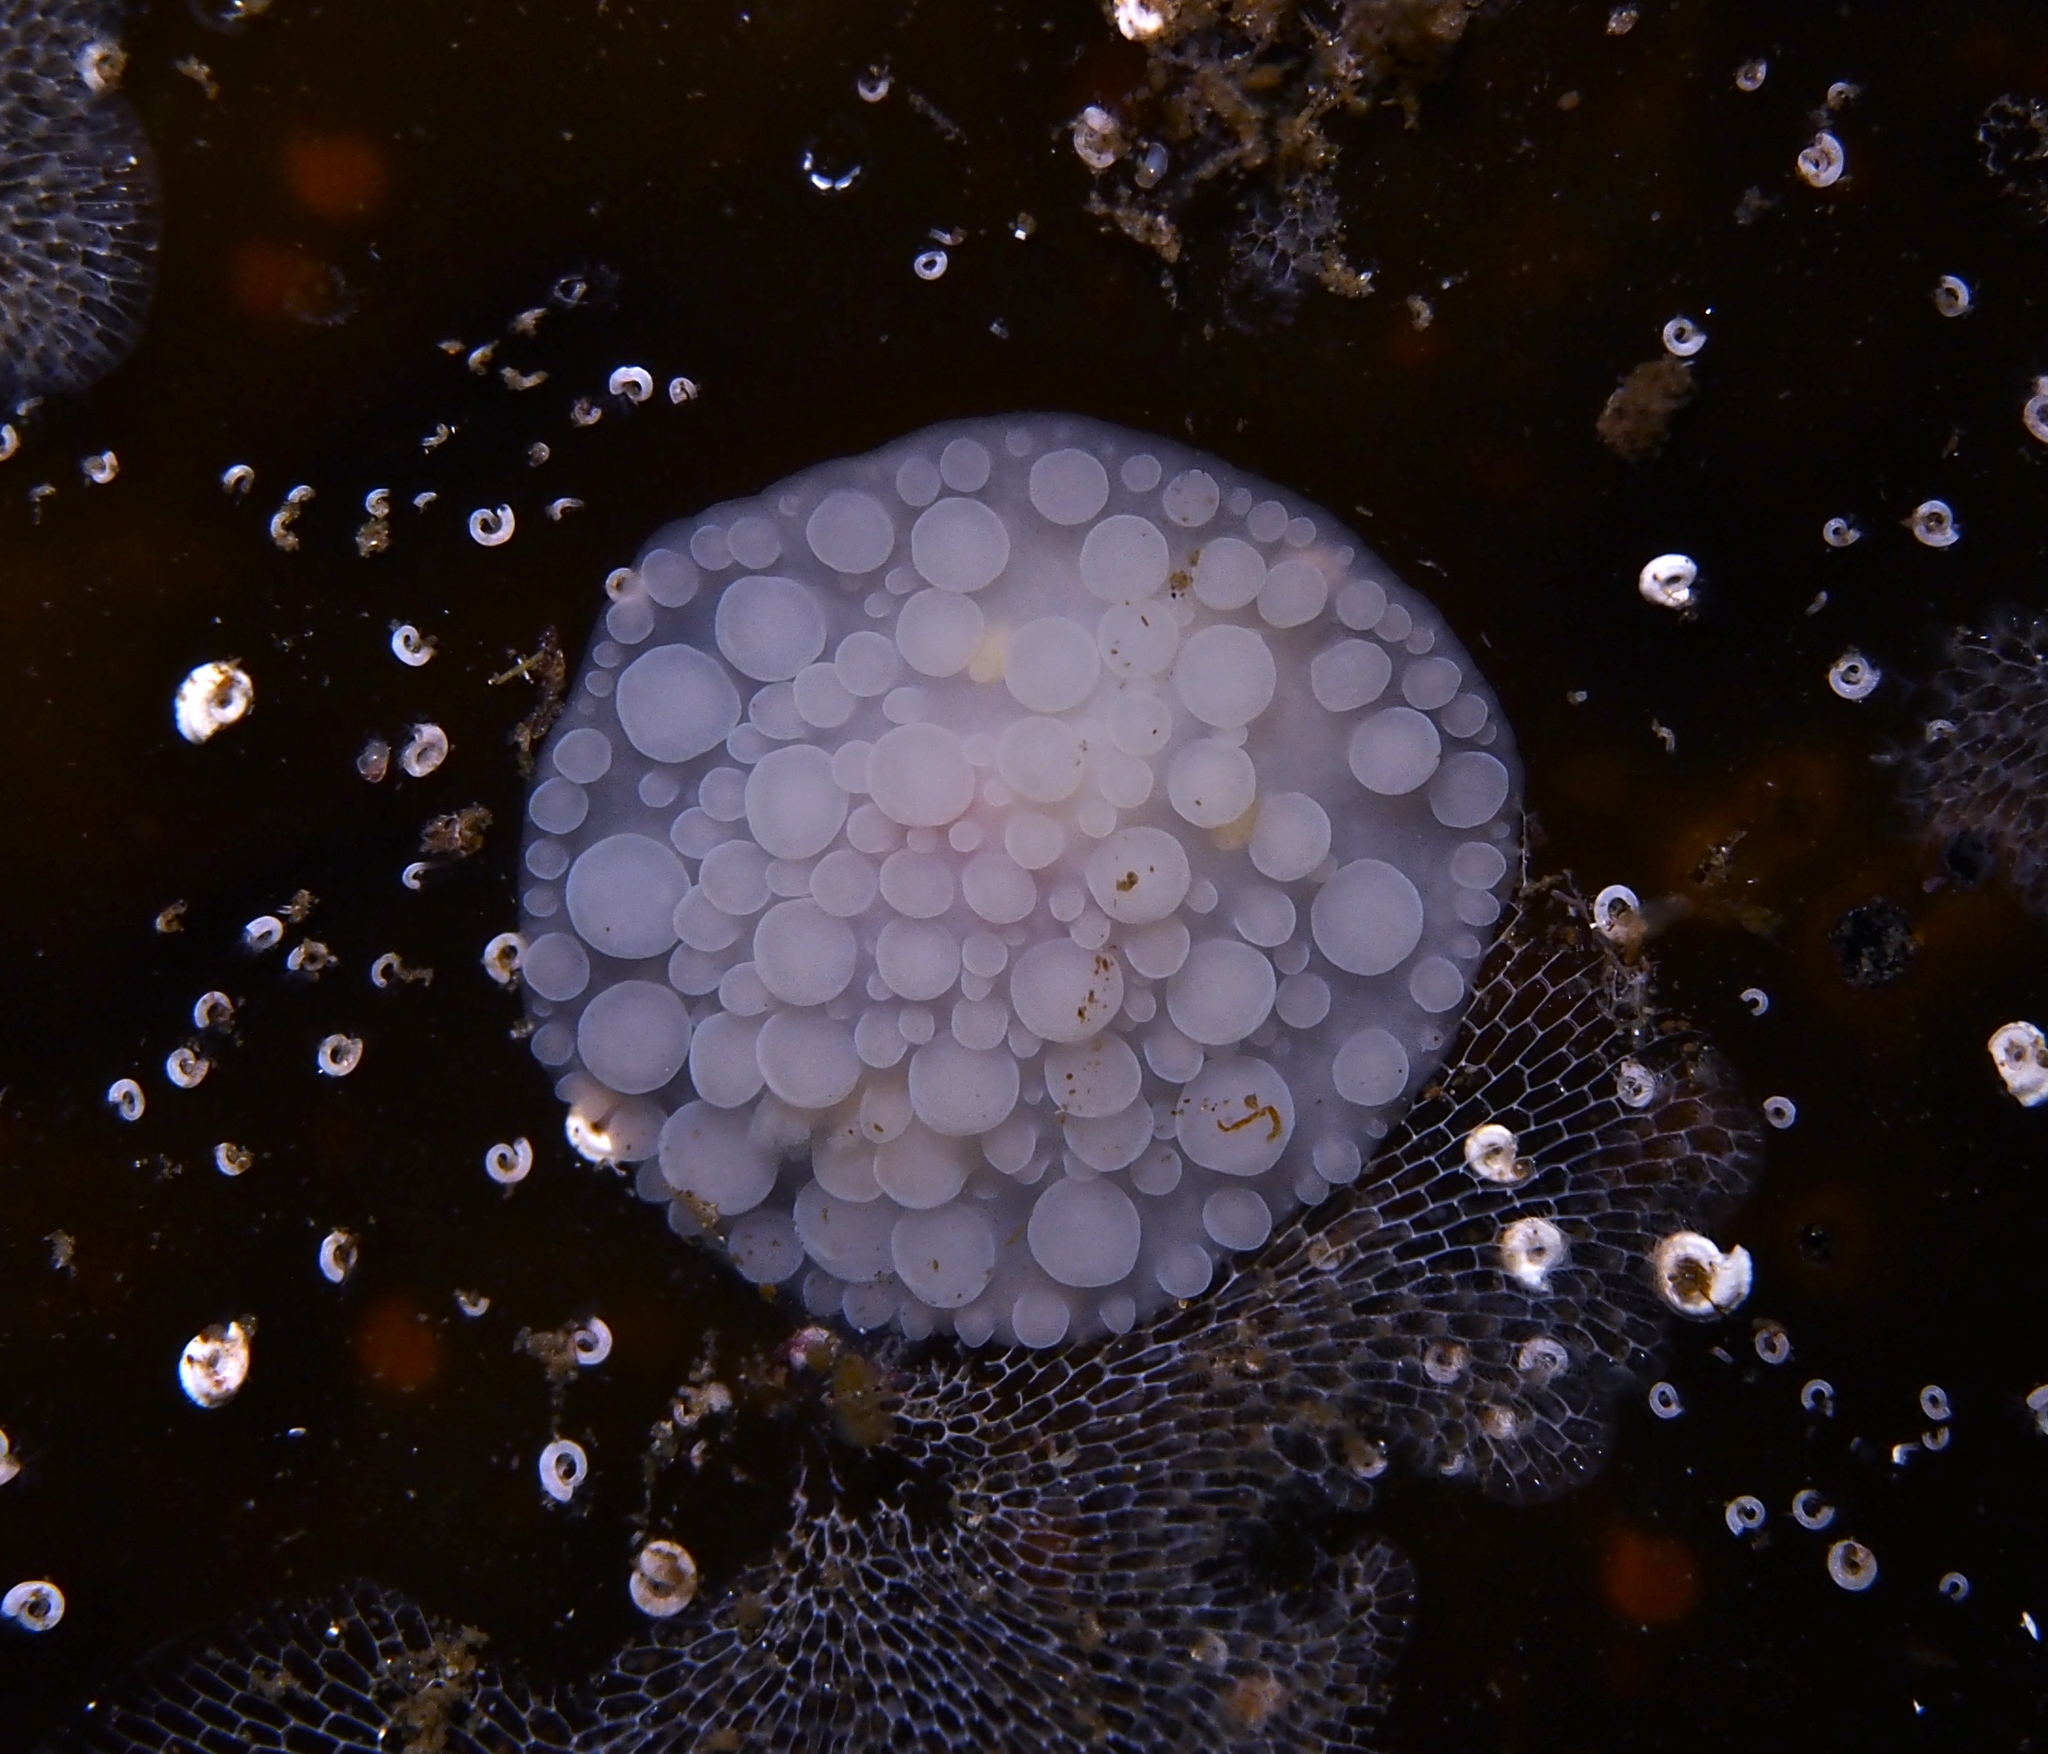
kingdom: Animalia
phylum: Mollusca
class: Gastropoda
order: Nudibranchia
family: Onchidorididae
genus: Adalaria
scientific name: Adalaria loveni
